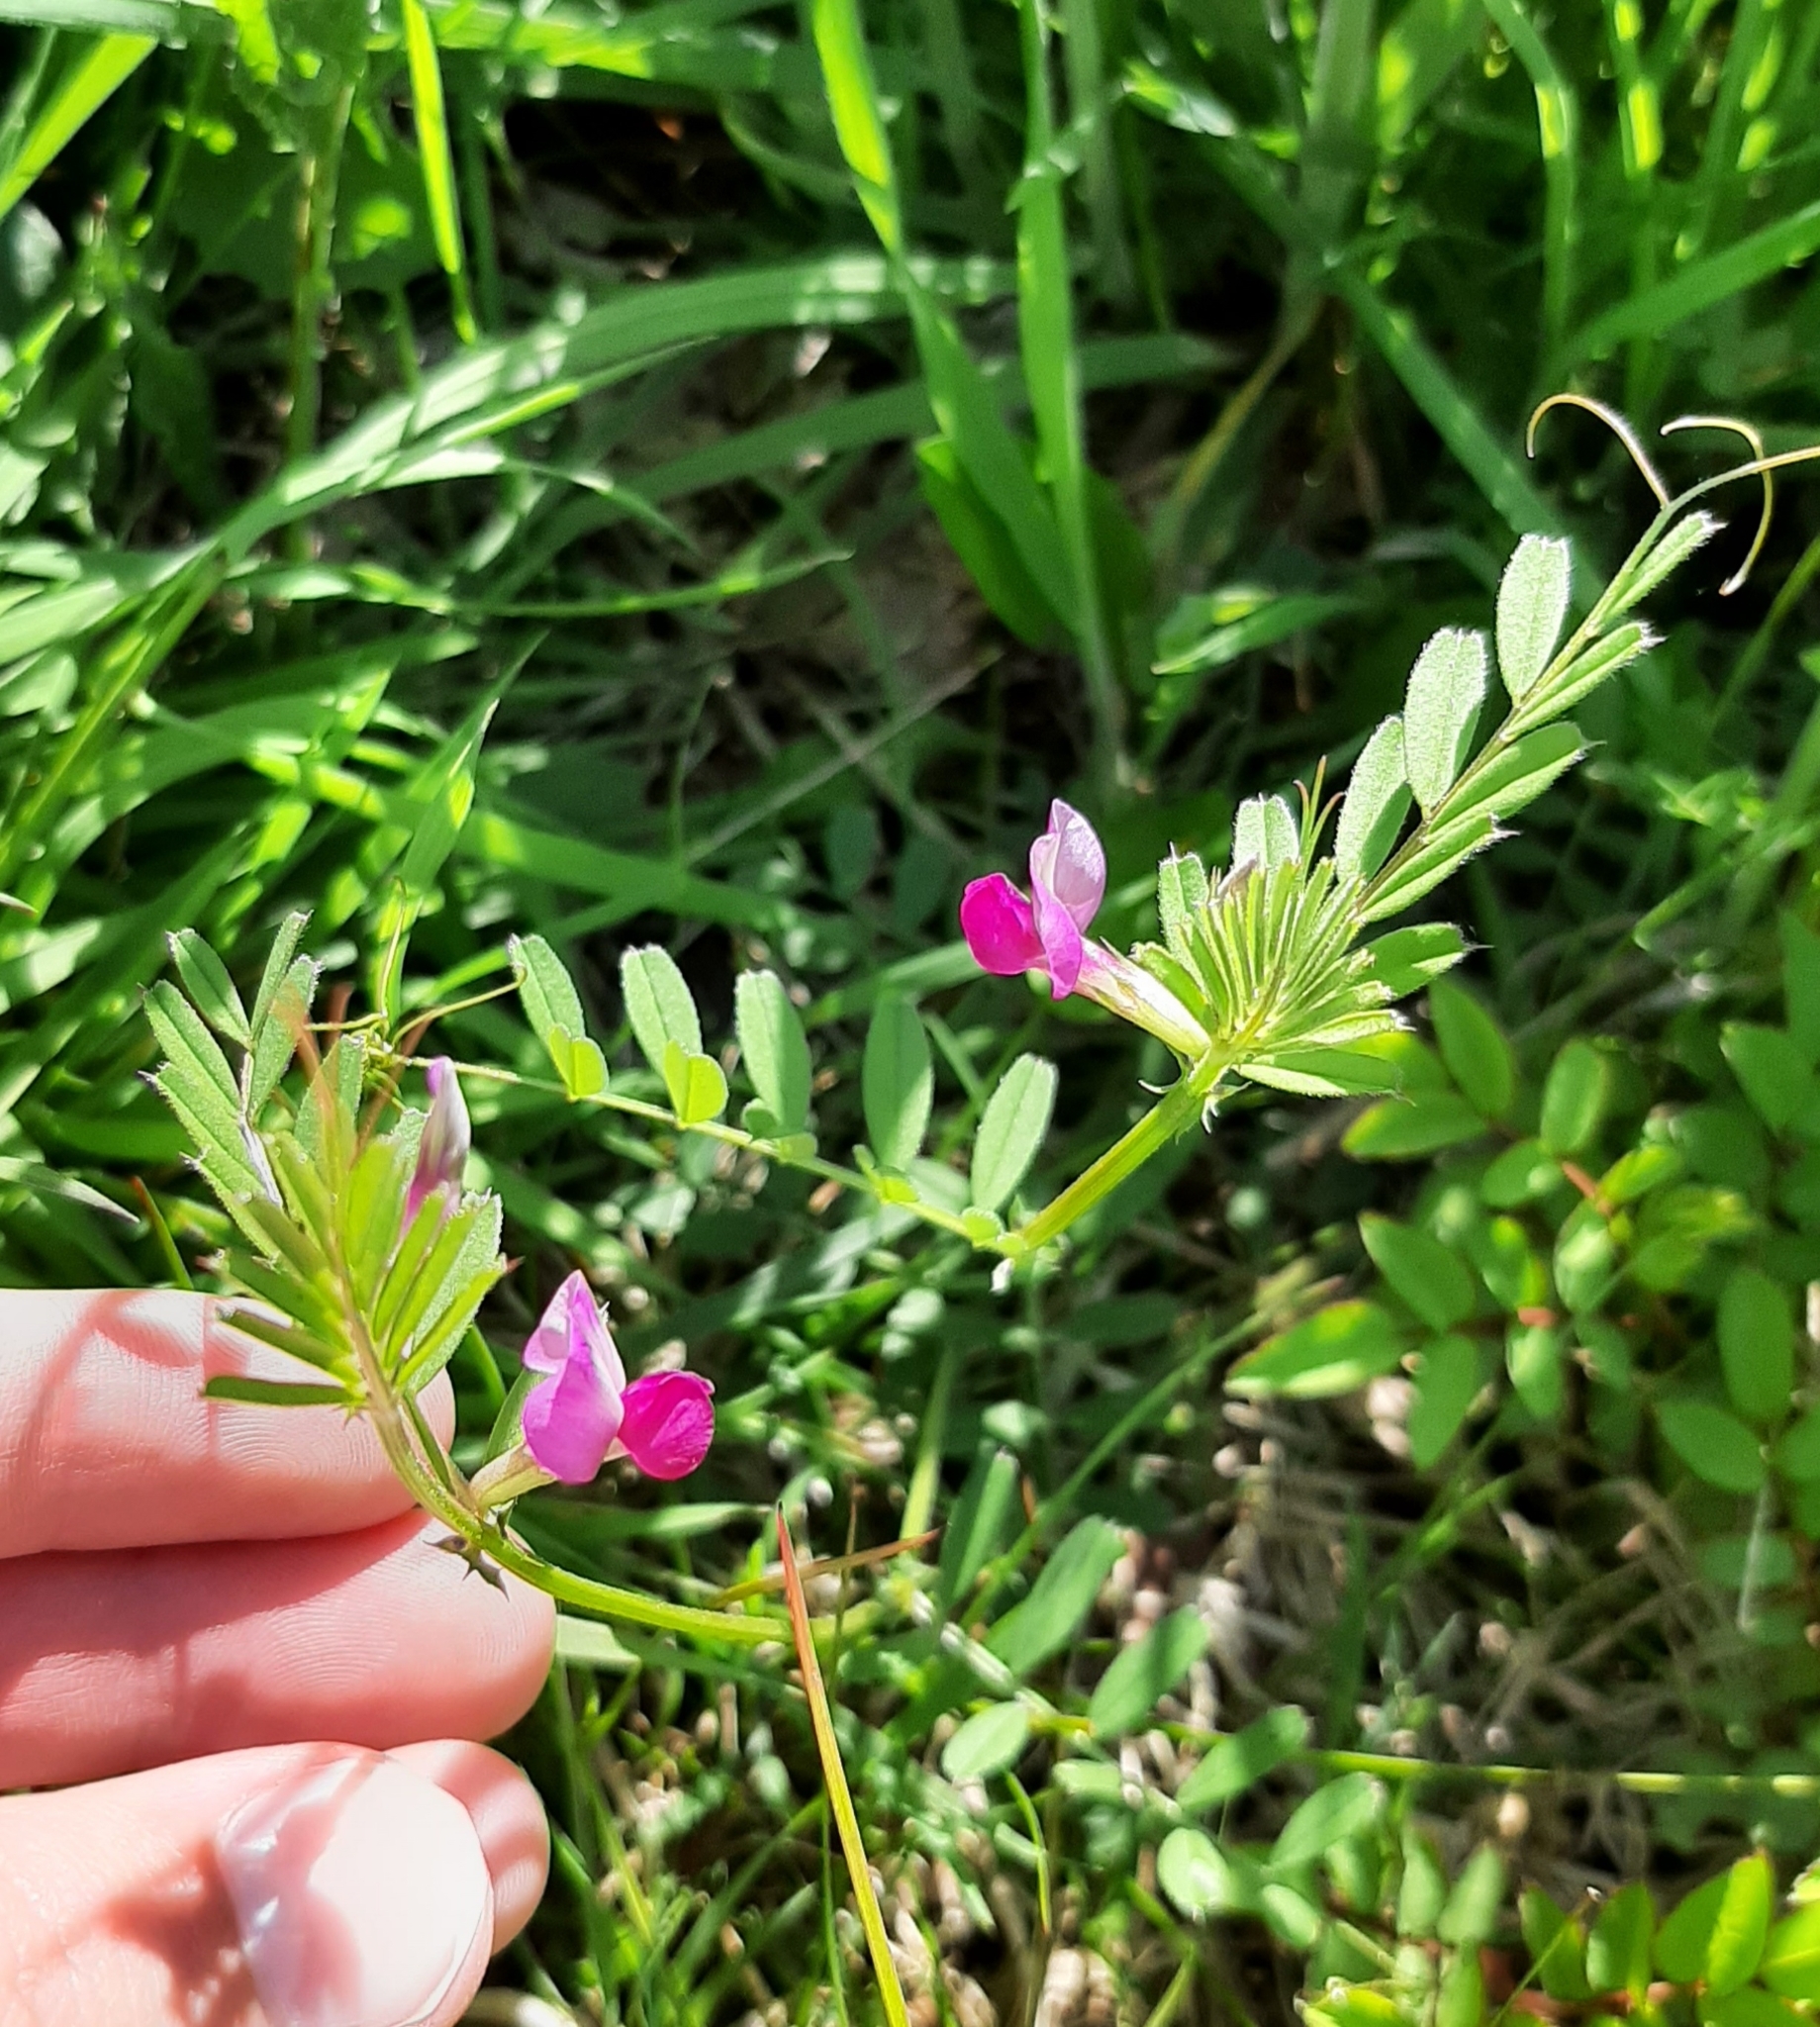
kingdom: Plantae
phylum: Tracheophyta
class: Magnoliopsida
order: Fabales
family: Fabaceae
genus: Vicia
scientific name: Vicia sativa
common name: Garden vetch
